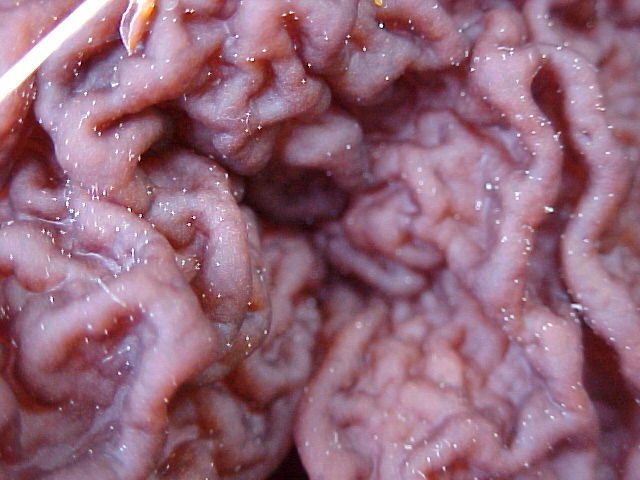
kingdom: Fungi
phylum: Ascomycota
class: Pezizomycetes
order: Pezizales
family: Discinaceae
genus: Gyromitra
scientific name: Gyromitra esculenta
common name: False morel
